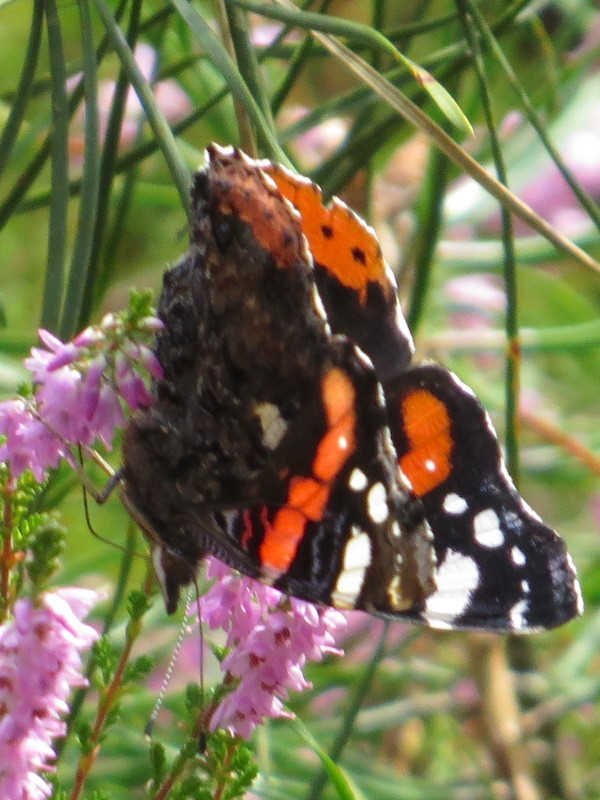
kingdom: Animalia
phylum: Arthropoda
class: Insecta
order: Lepidoptera
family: Nymphalidae
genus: Vanessa
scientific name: Vanessa atalanta
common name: Red admiral
